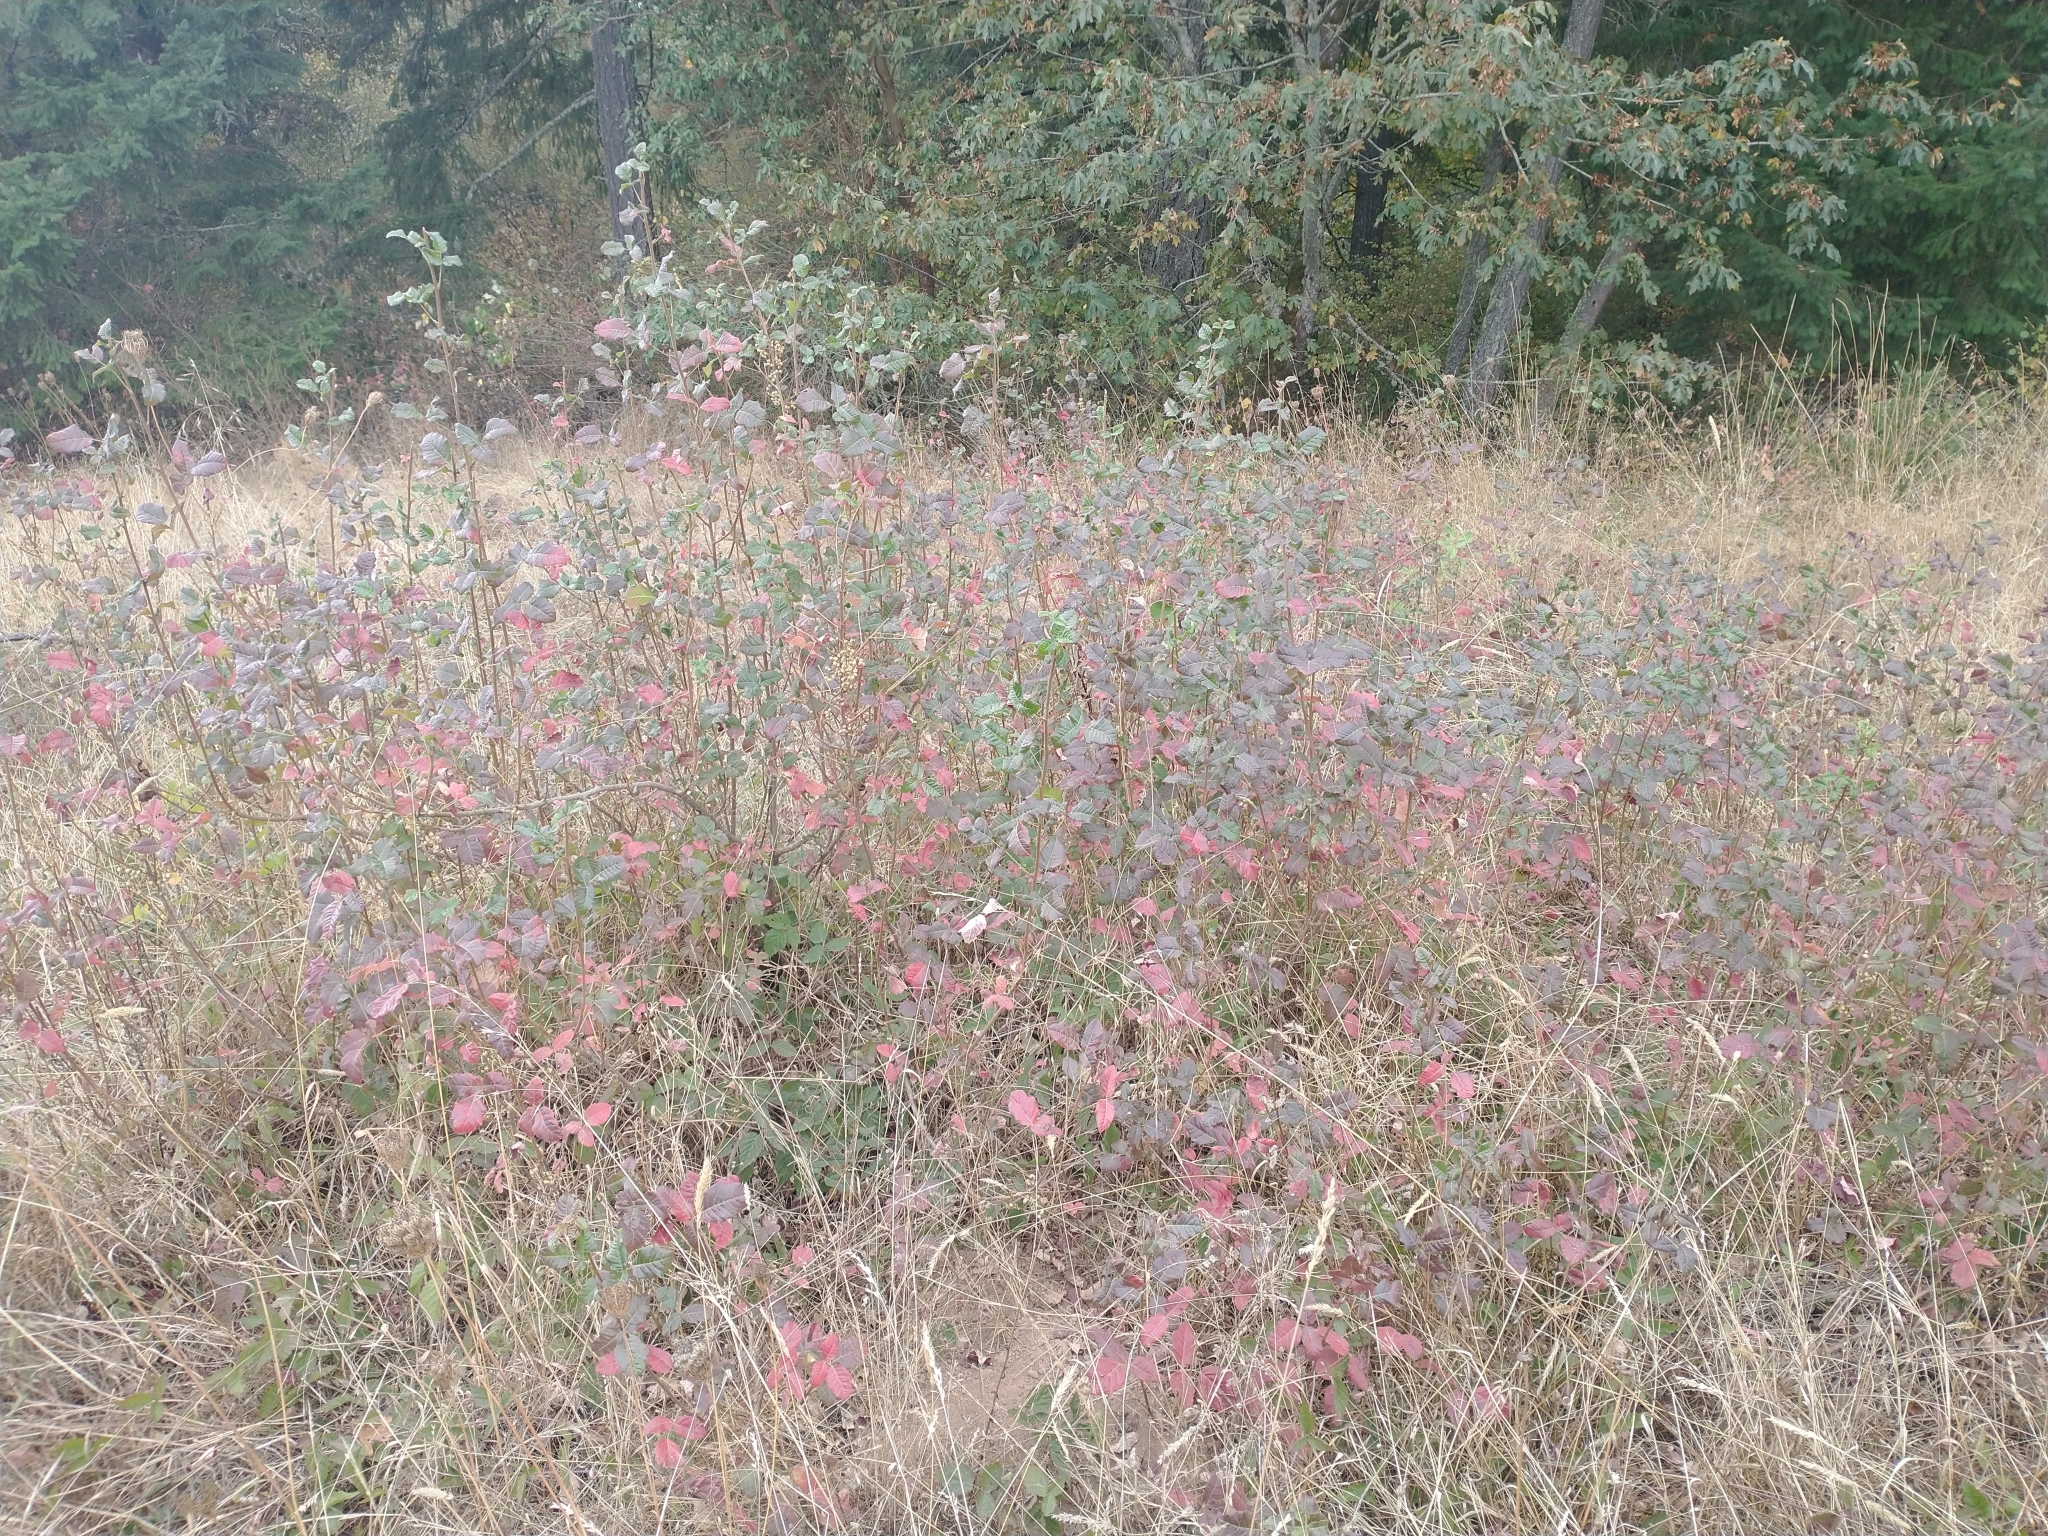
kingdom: Plantae
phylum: Tracheophyta
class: Magnoliopsida
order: Sapindales
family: Anacardiaceae
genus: Toxicodendron
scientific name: Toxicodendron diversilobum
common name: Pacific poison-oak
